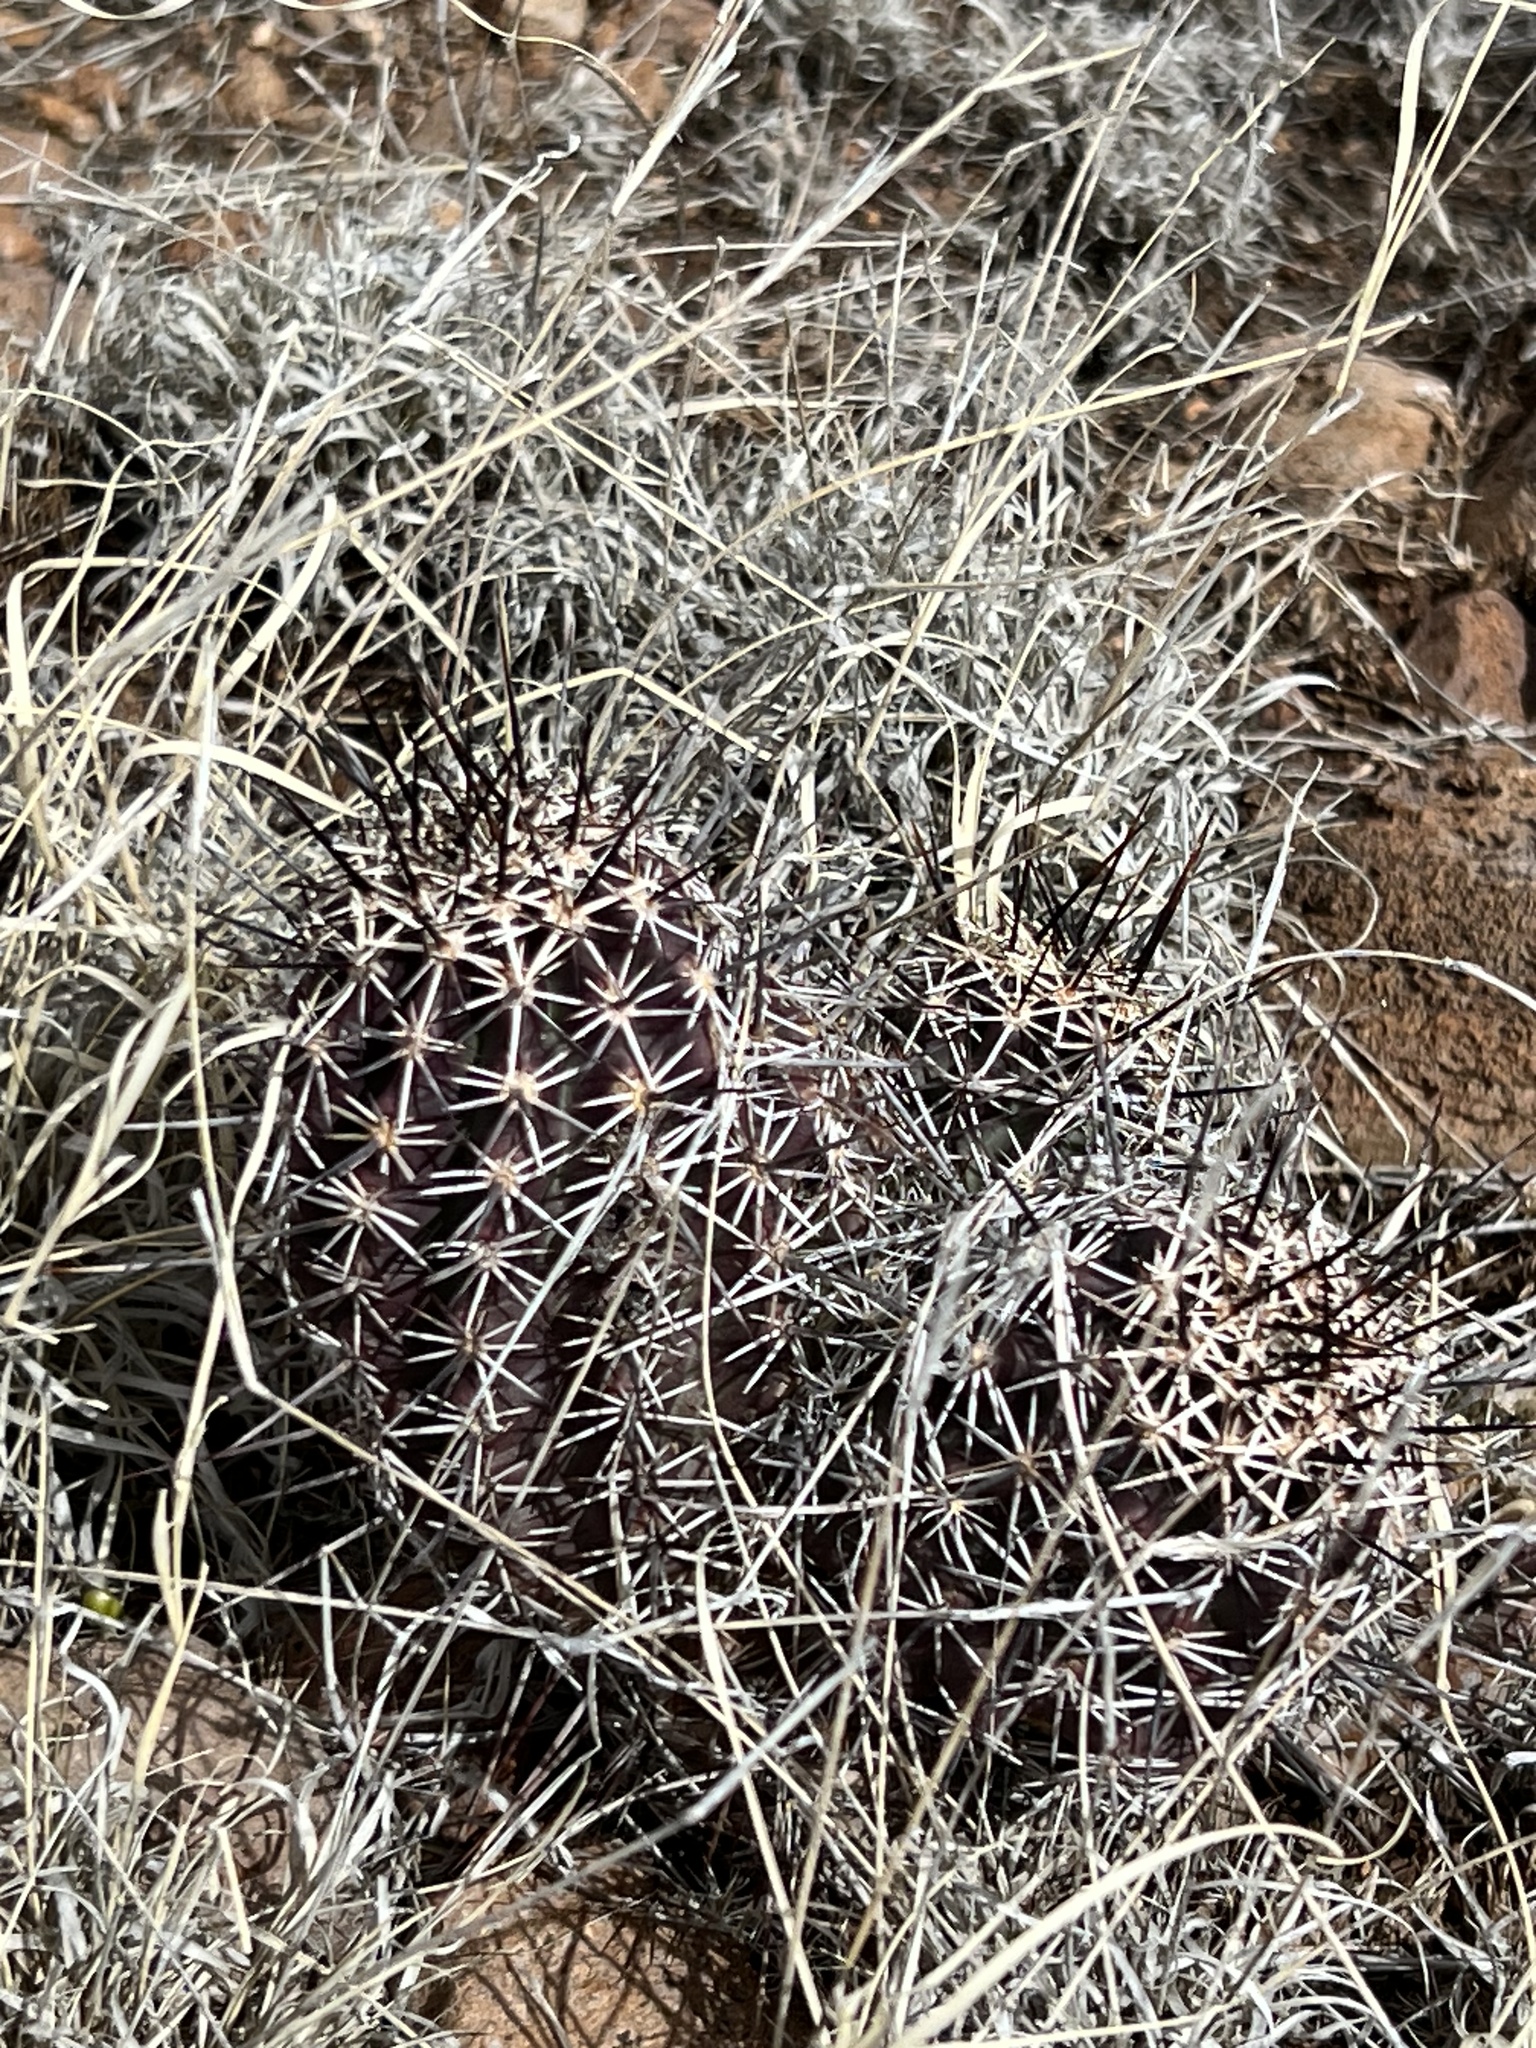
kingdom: Plantae
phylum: Tracheophyta
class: Magnoliopsida
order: Caryophyllales
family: Cactaceae
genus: Echinocereus
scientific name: Echinocereus fendleri
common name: Fendler's hedgehog cactus
